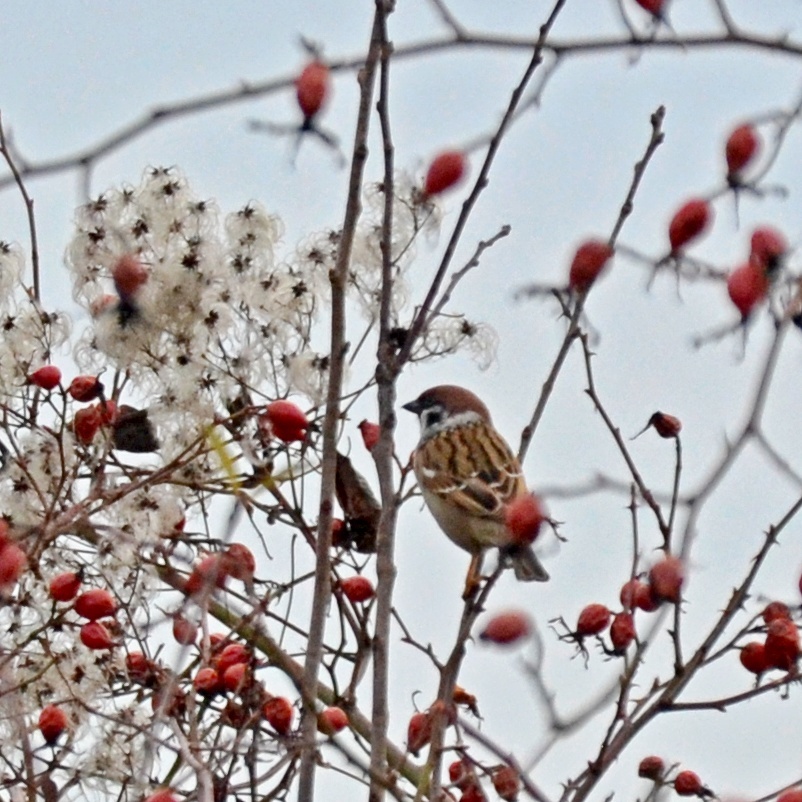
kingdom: Animalia
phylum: Chordata
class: Aves
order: Passeriformes
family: Passeridae
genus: Passer
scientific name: Passer montanus
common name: Eurasian tree sparrow
